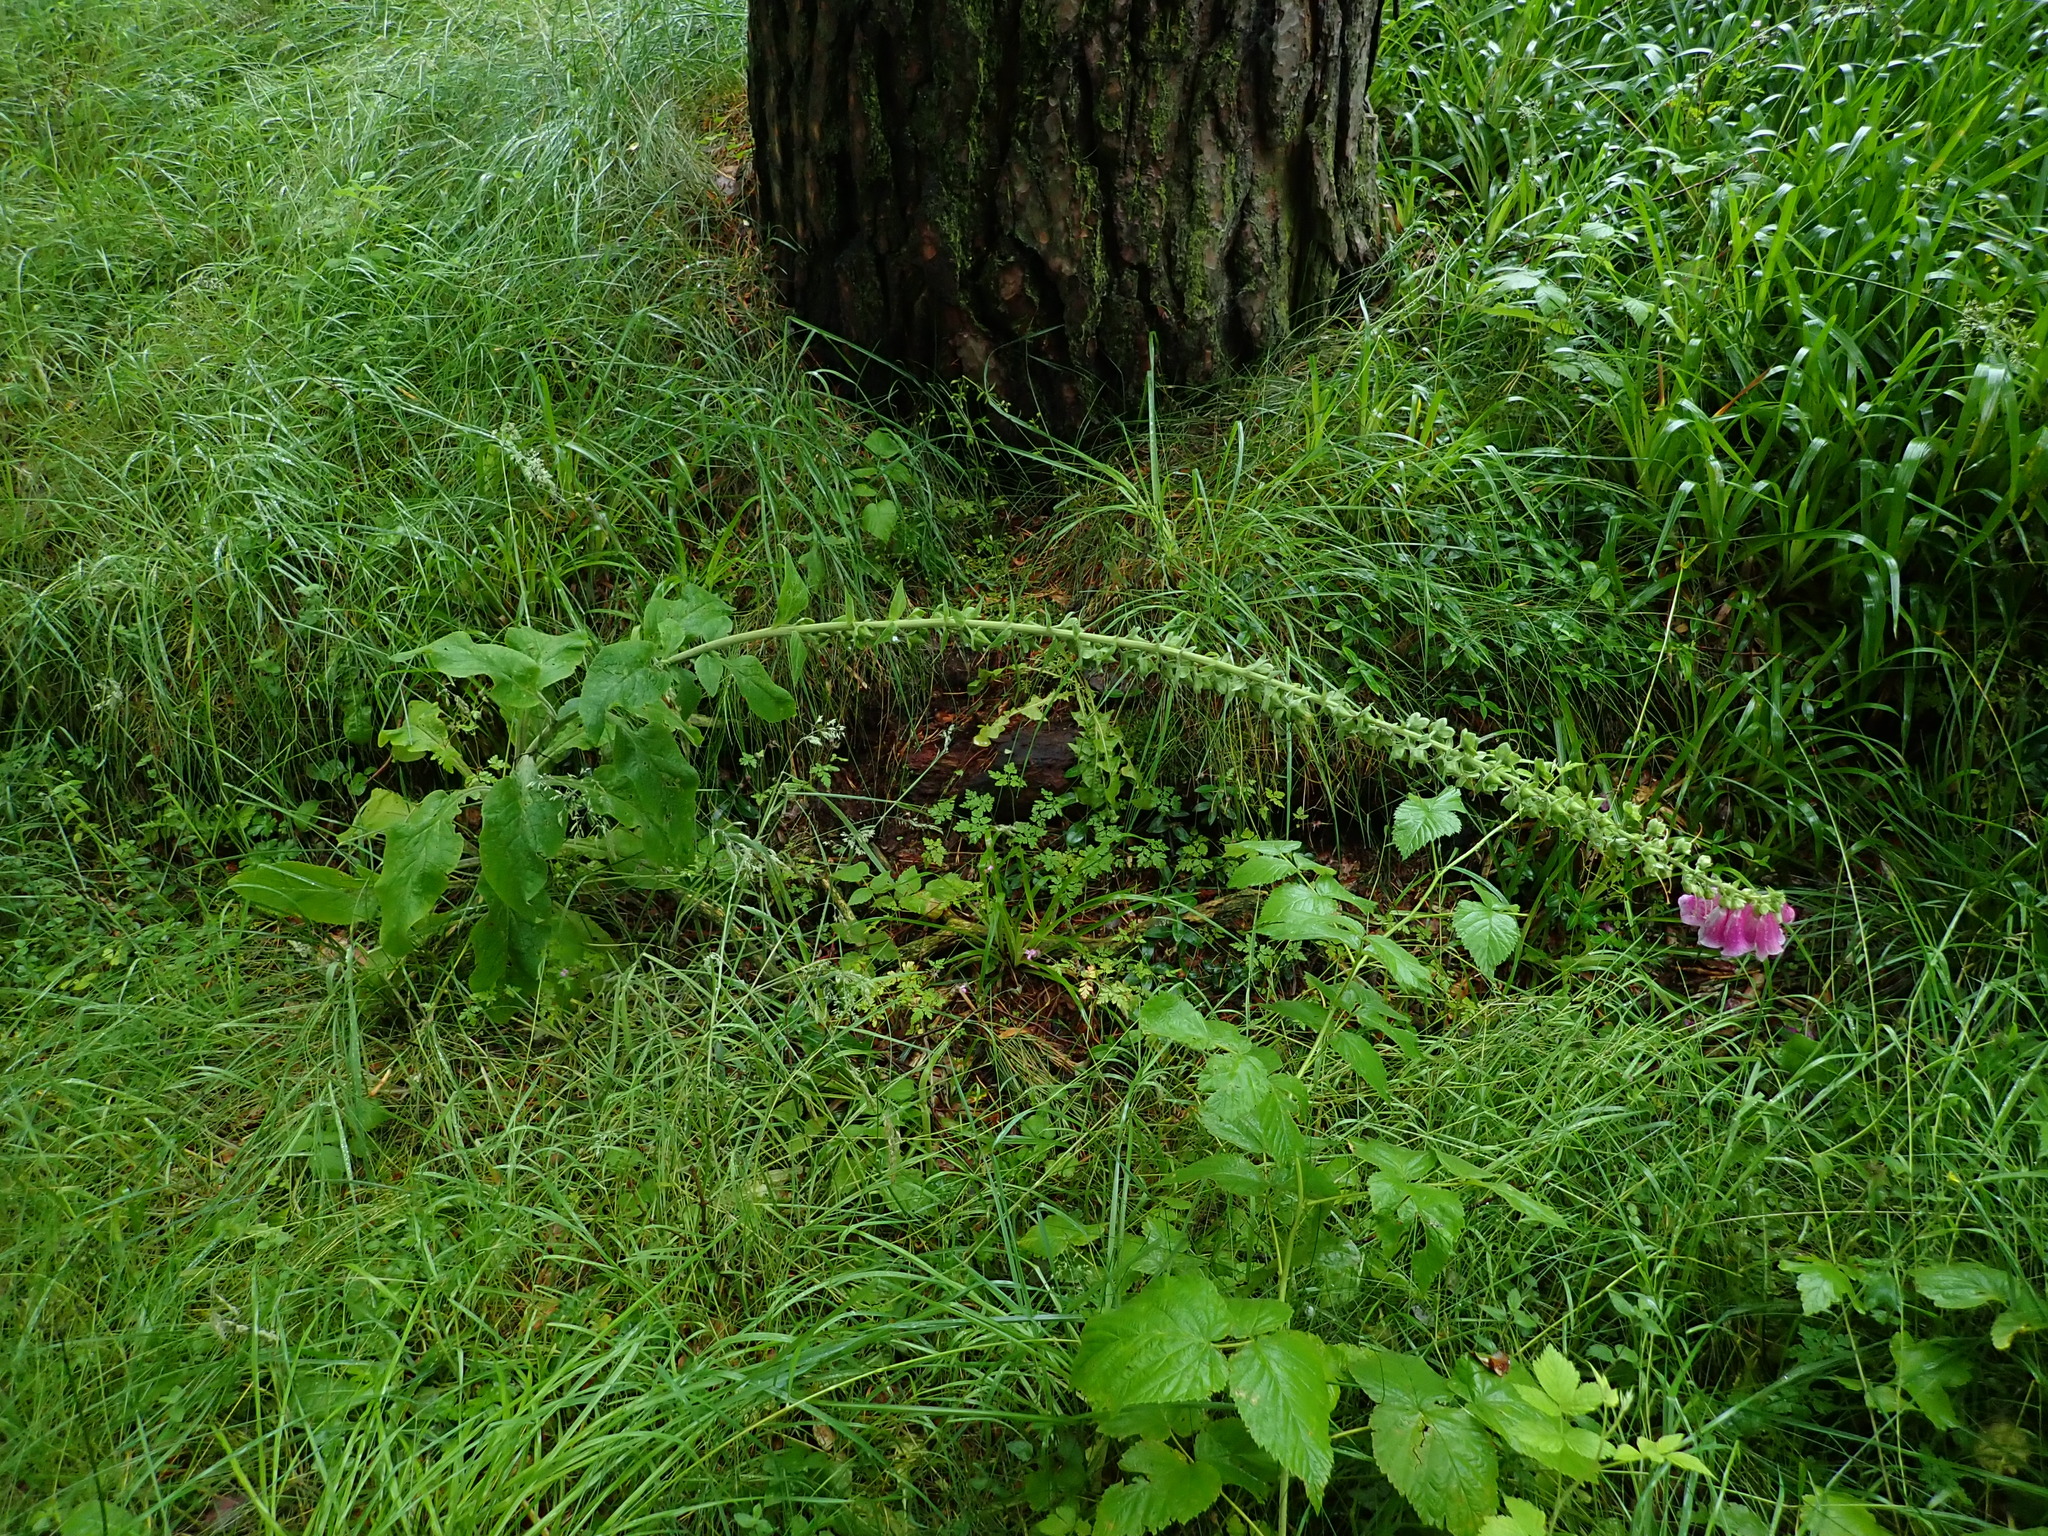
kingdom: Plantae
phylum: Tracheophyta
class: Magnoliopsida
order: Lamiales
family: Plantaginaceae
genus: Digitalis
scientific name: Digitalis purpurea
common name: Foxglove
